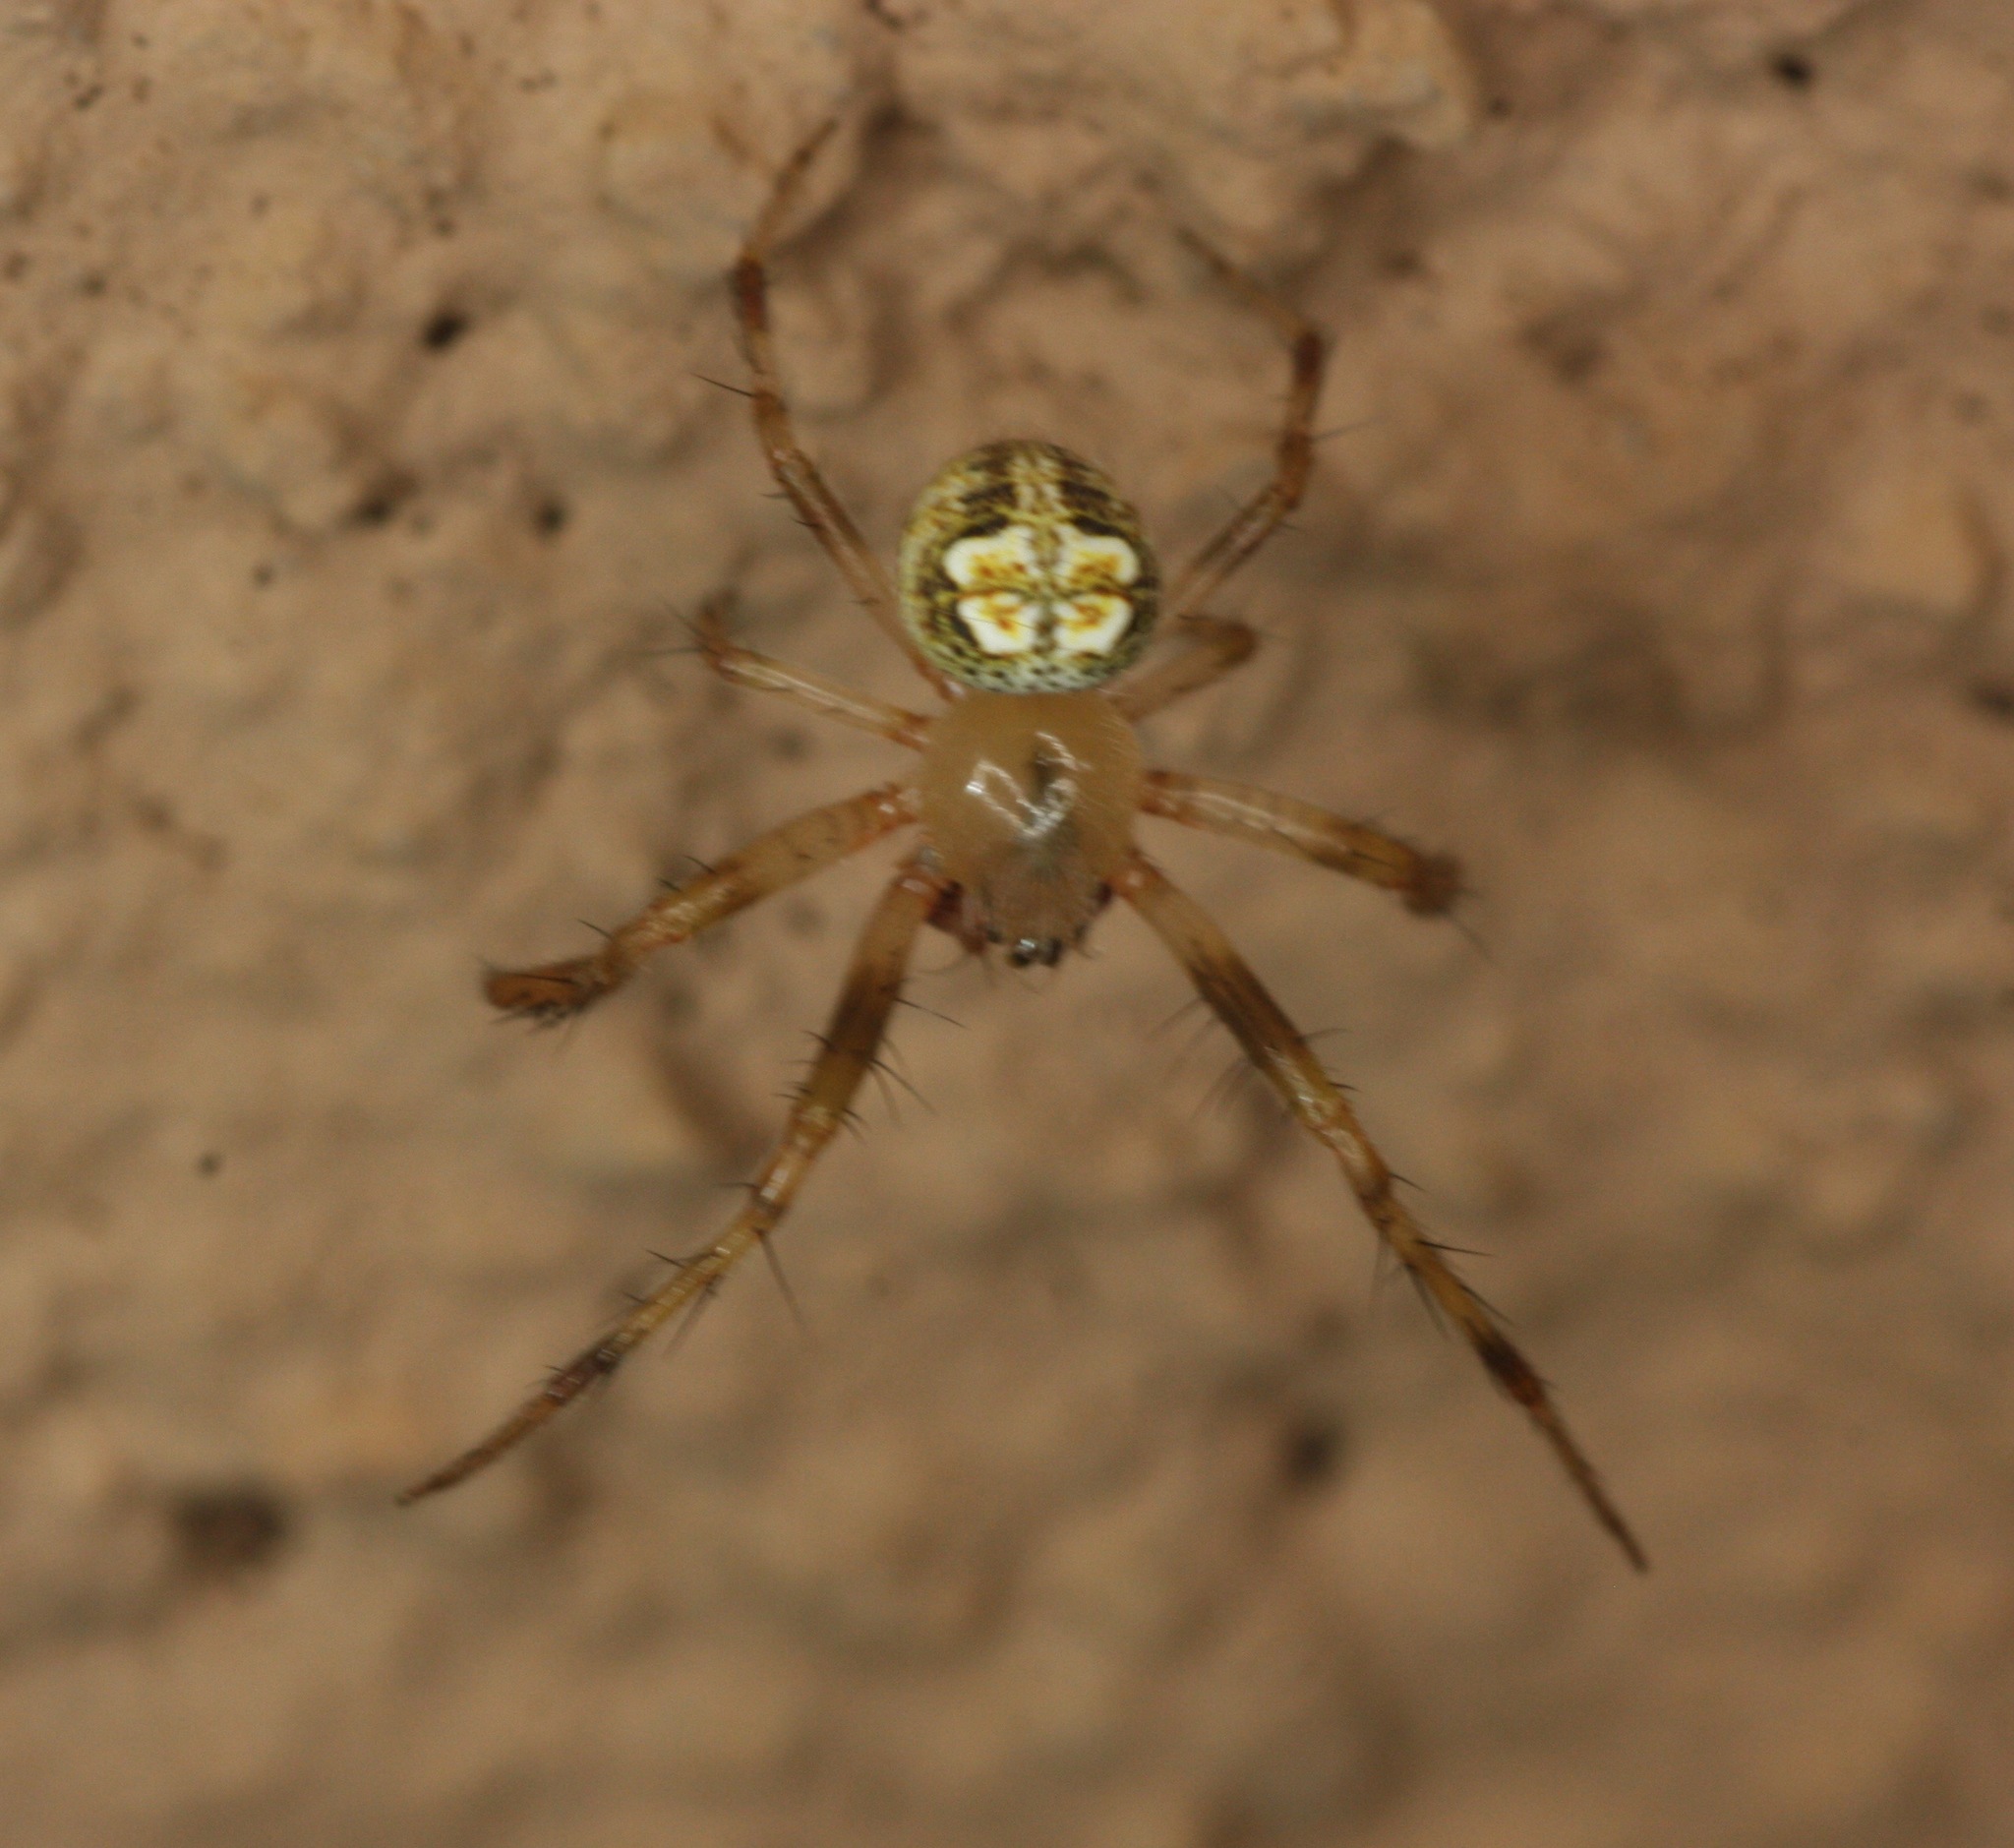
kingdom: Animalia
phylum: Arthropoda
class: Arachnida
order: Araneae
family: Araneidae
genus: Araneus
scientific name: Araneus pegnia
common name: Orb weavers
